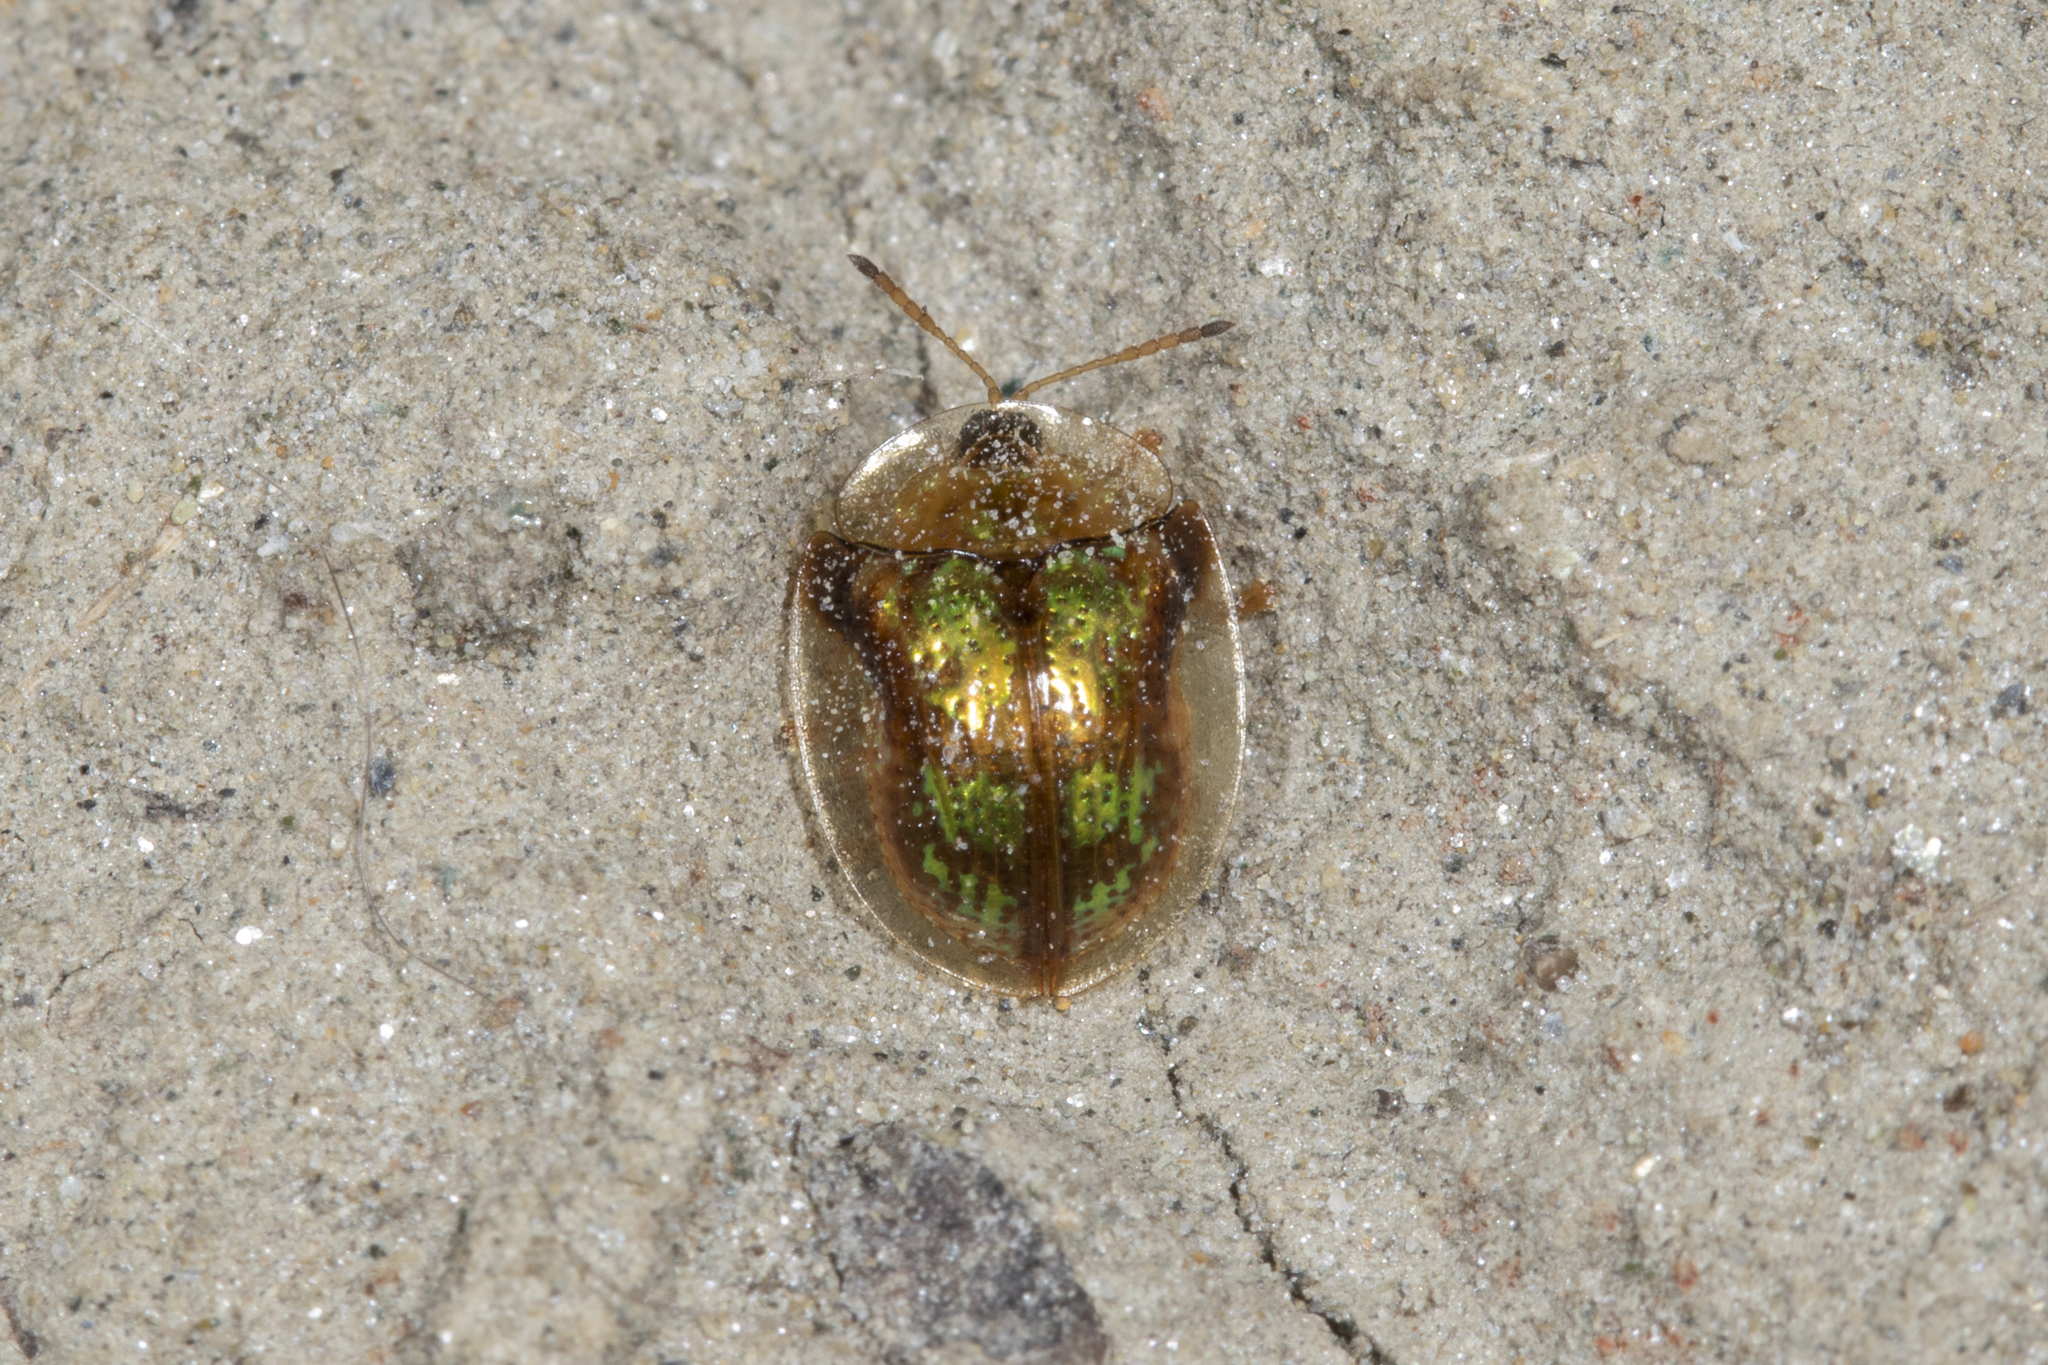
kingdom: Animalia
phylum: Arthropoda
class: Insecta
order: Coleoptera
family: Chrysomelidae
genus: Deloyala
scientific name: Deloyala guttata
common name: Mottled tortoise beetle
